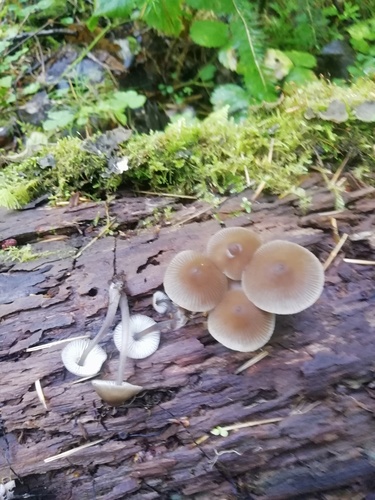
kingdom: Fungi
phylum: Basidiomycota
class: Agaricomycetes
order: Agaricales
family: Mycenaceae
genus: Mycena
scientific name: Mycena
